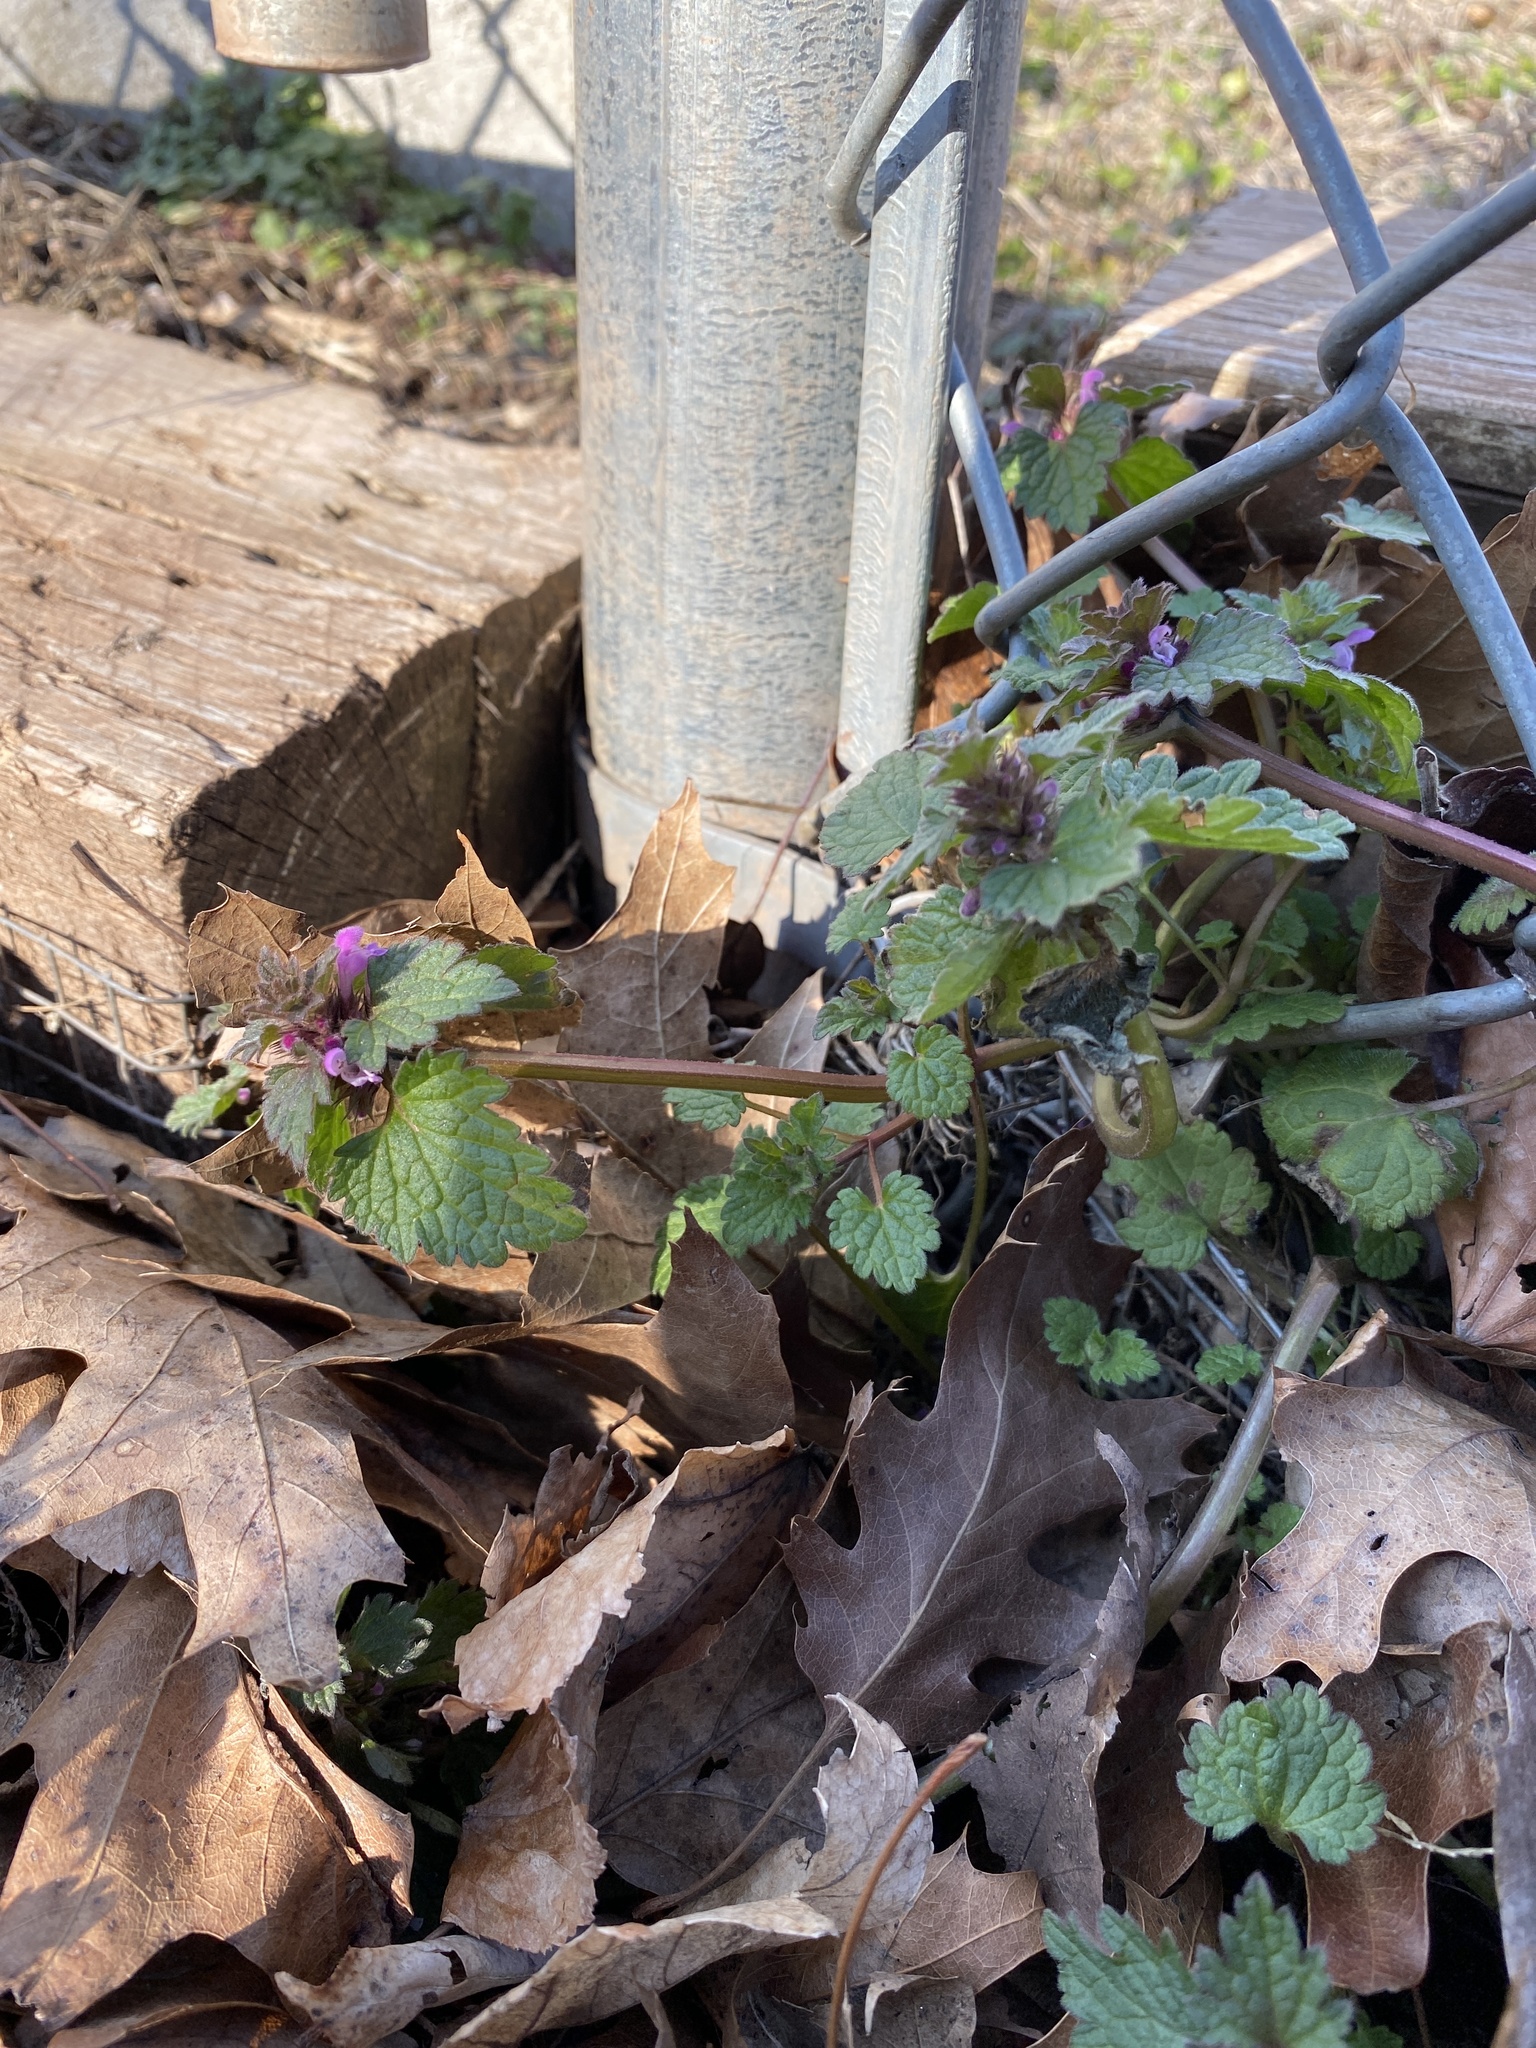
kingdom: Plantae
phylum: Tracheophyta
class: Magnoliopsida
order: Lamiales
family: Lamiaceae
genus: Lamium
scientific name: Lamium purpureum
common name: Red dead-nettle
